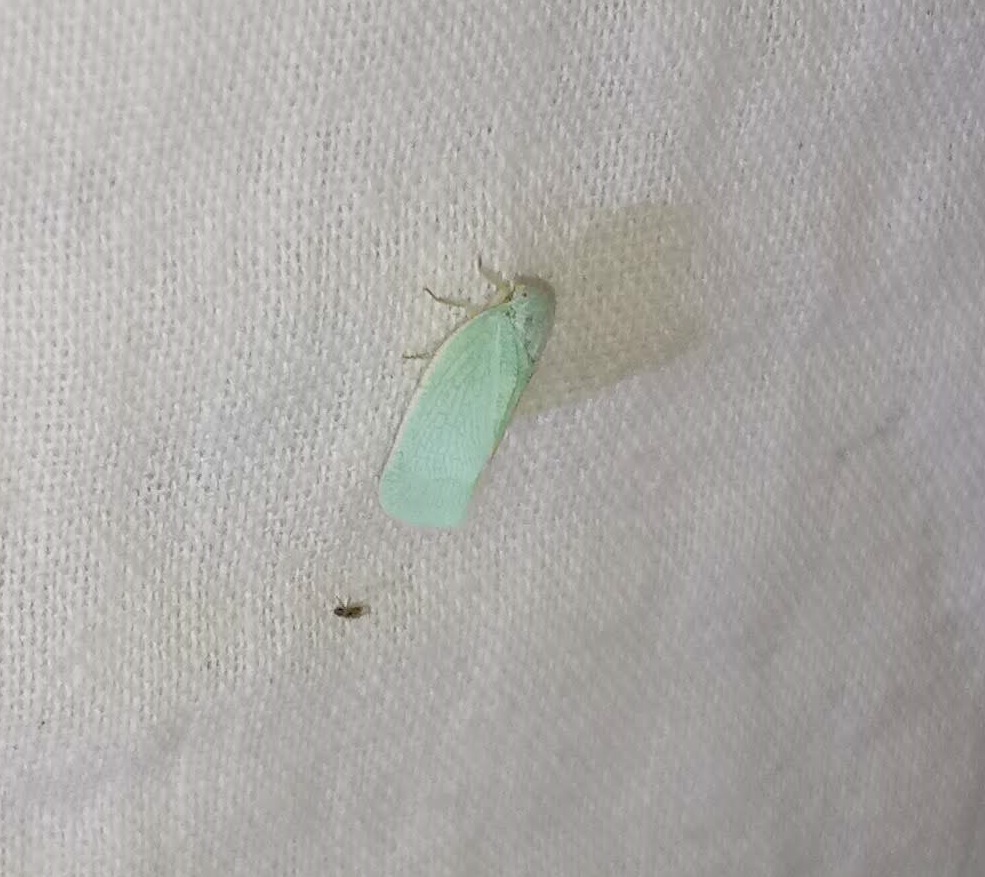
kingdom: Animalia
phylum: Arthropoda
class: Insecta
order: Hemiptera
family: Flatidae
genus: Flatormenis
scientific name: Flatormenis proxima
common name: Northern flatid planthopper
